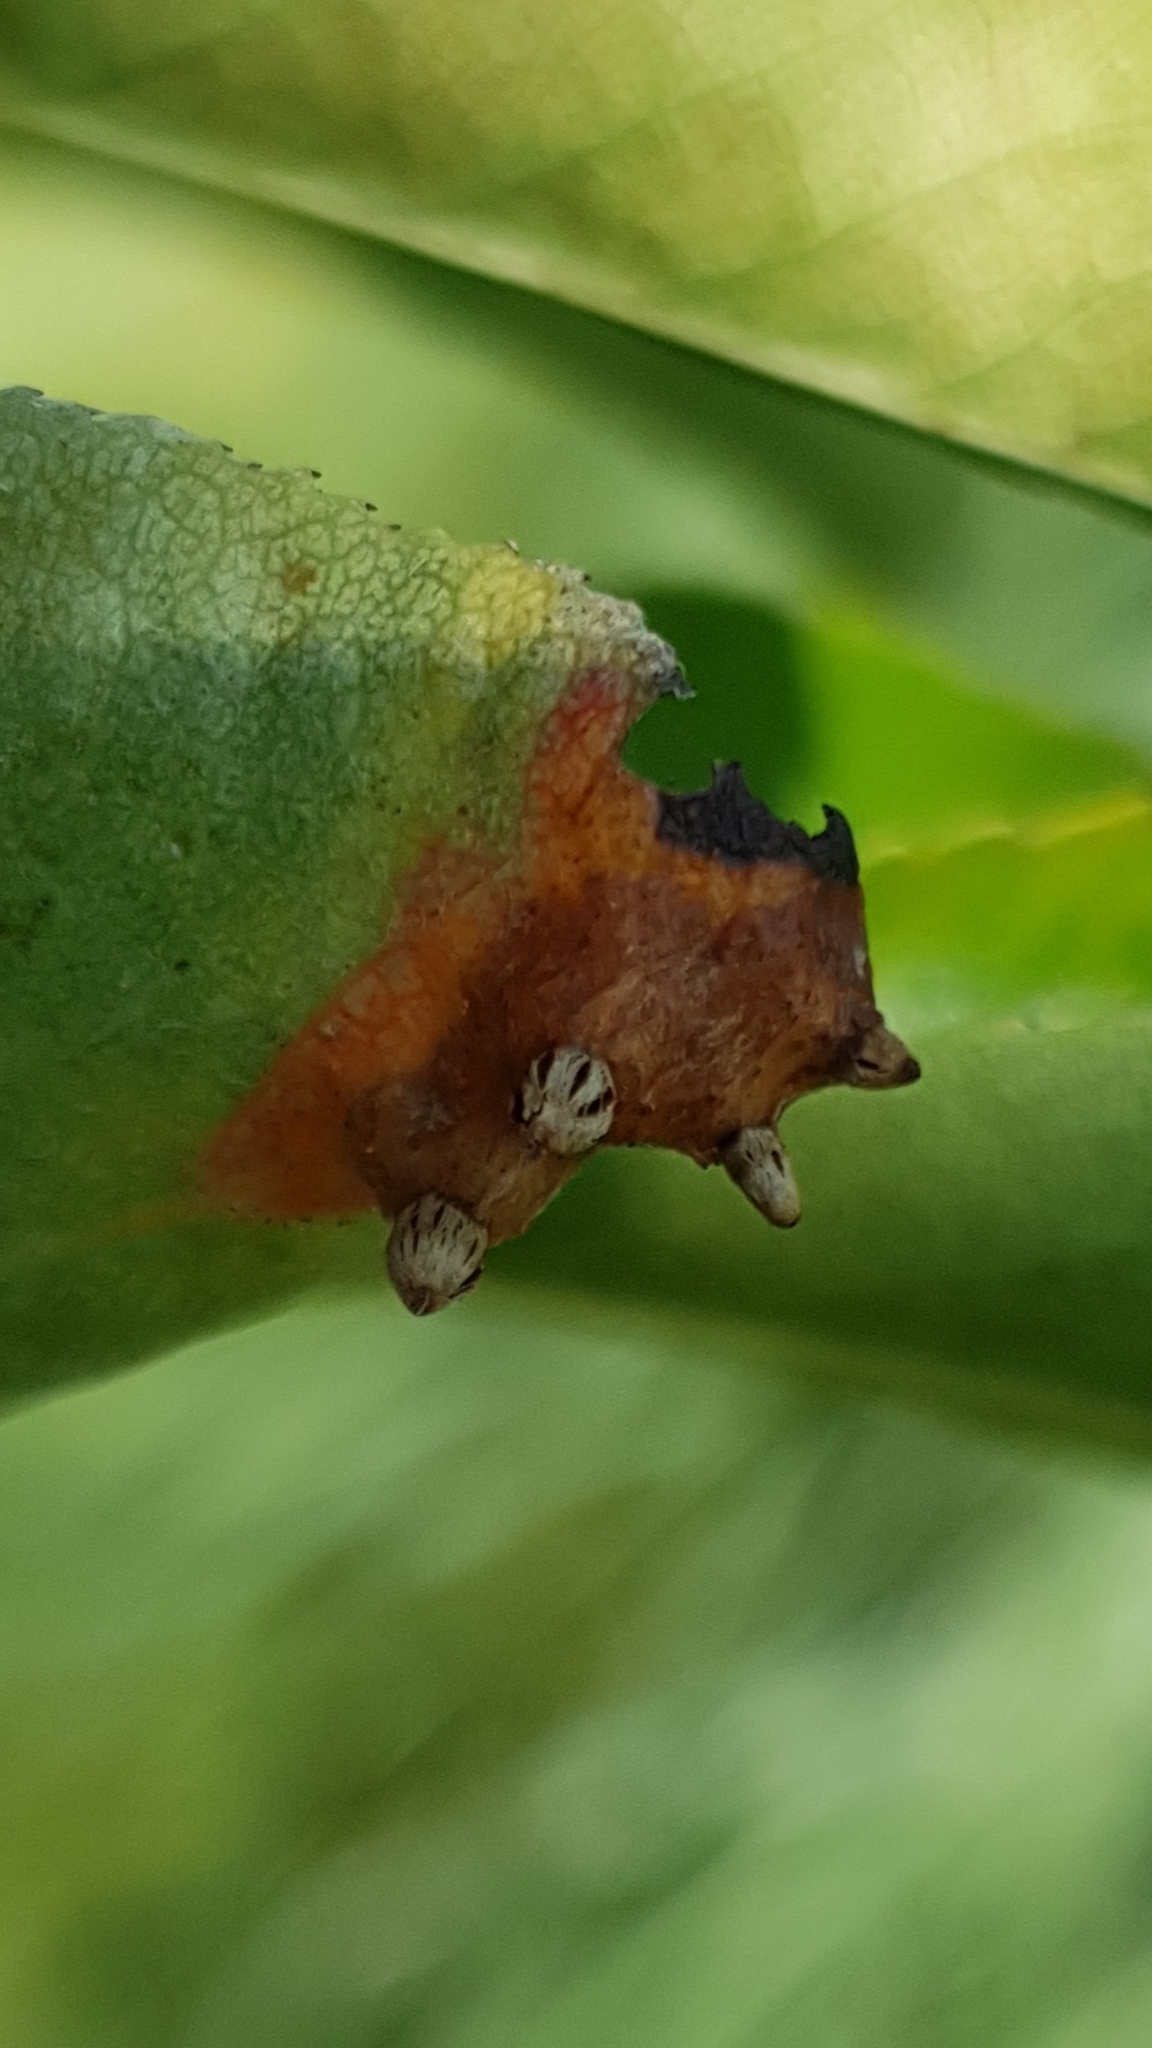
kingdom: Fungi
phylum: Basidiomycota
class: Pucciniomycetes
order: Pucciniales
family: Gymnosporangiaceae
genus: Gymnosporangium
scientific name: Gymnosporangium sabinae
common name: Pear trellis rust fungus
